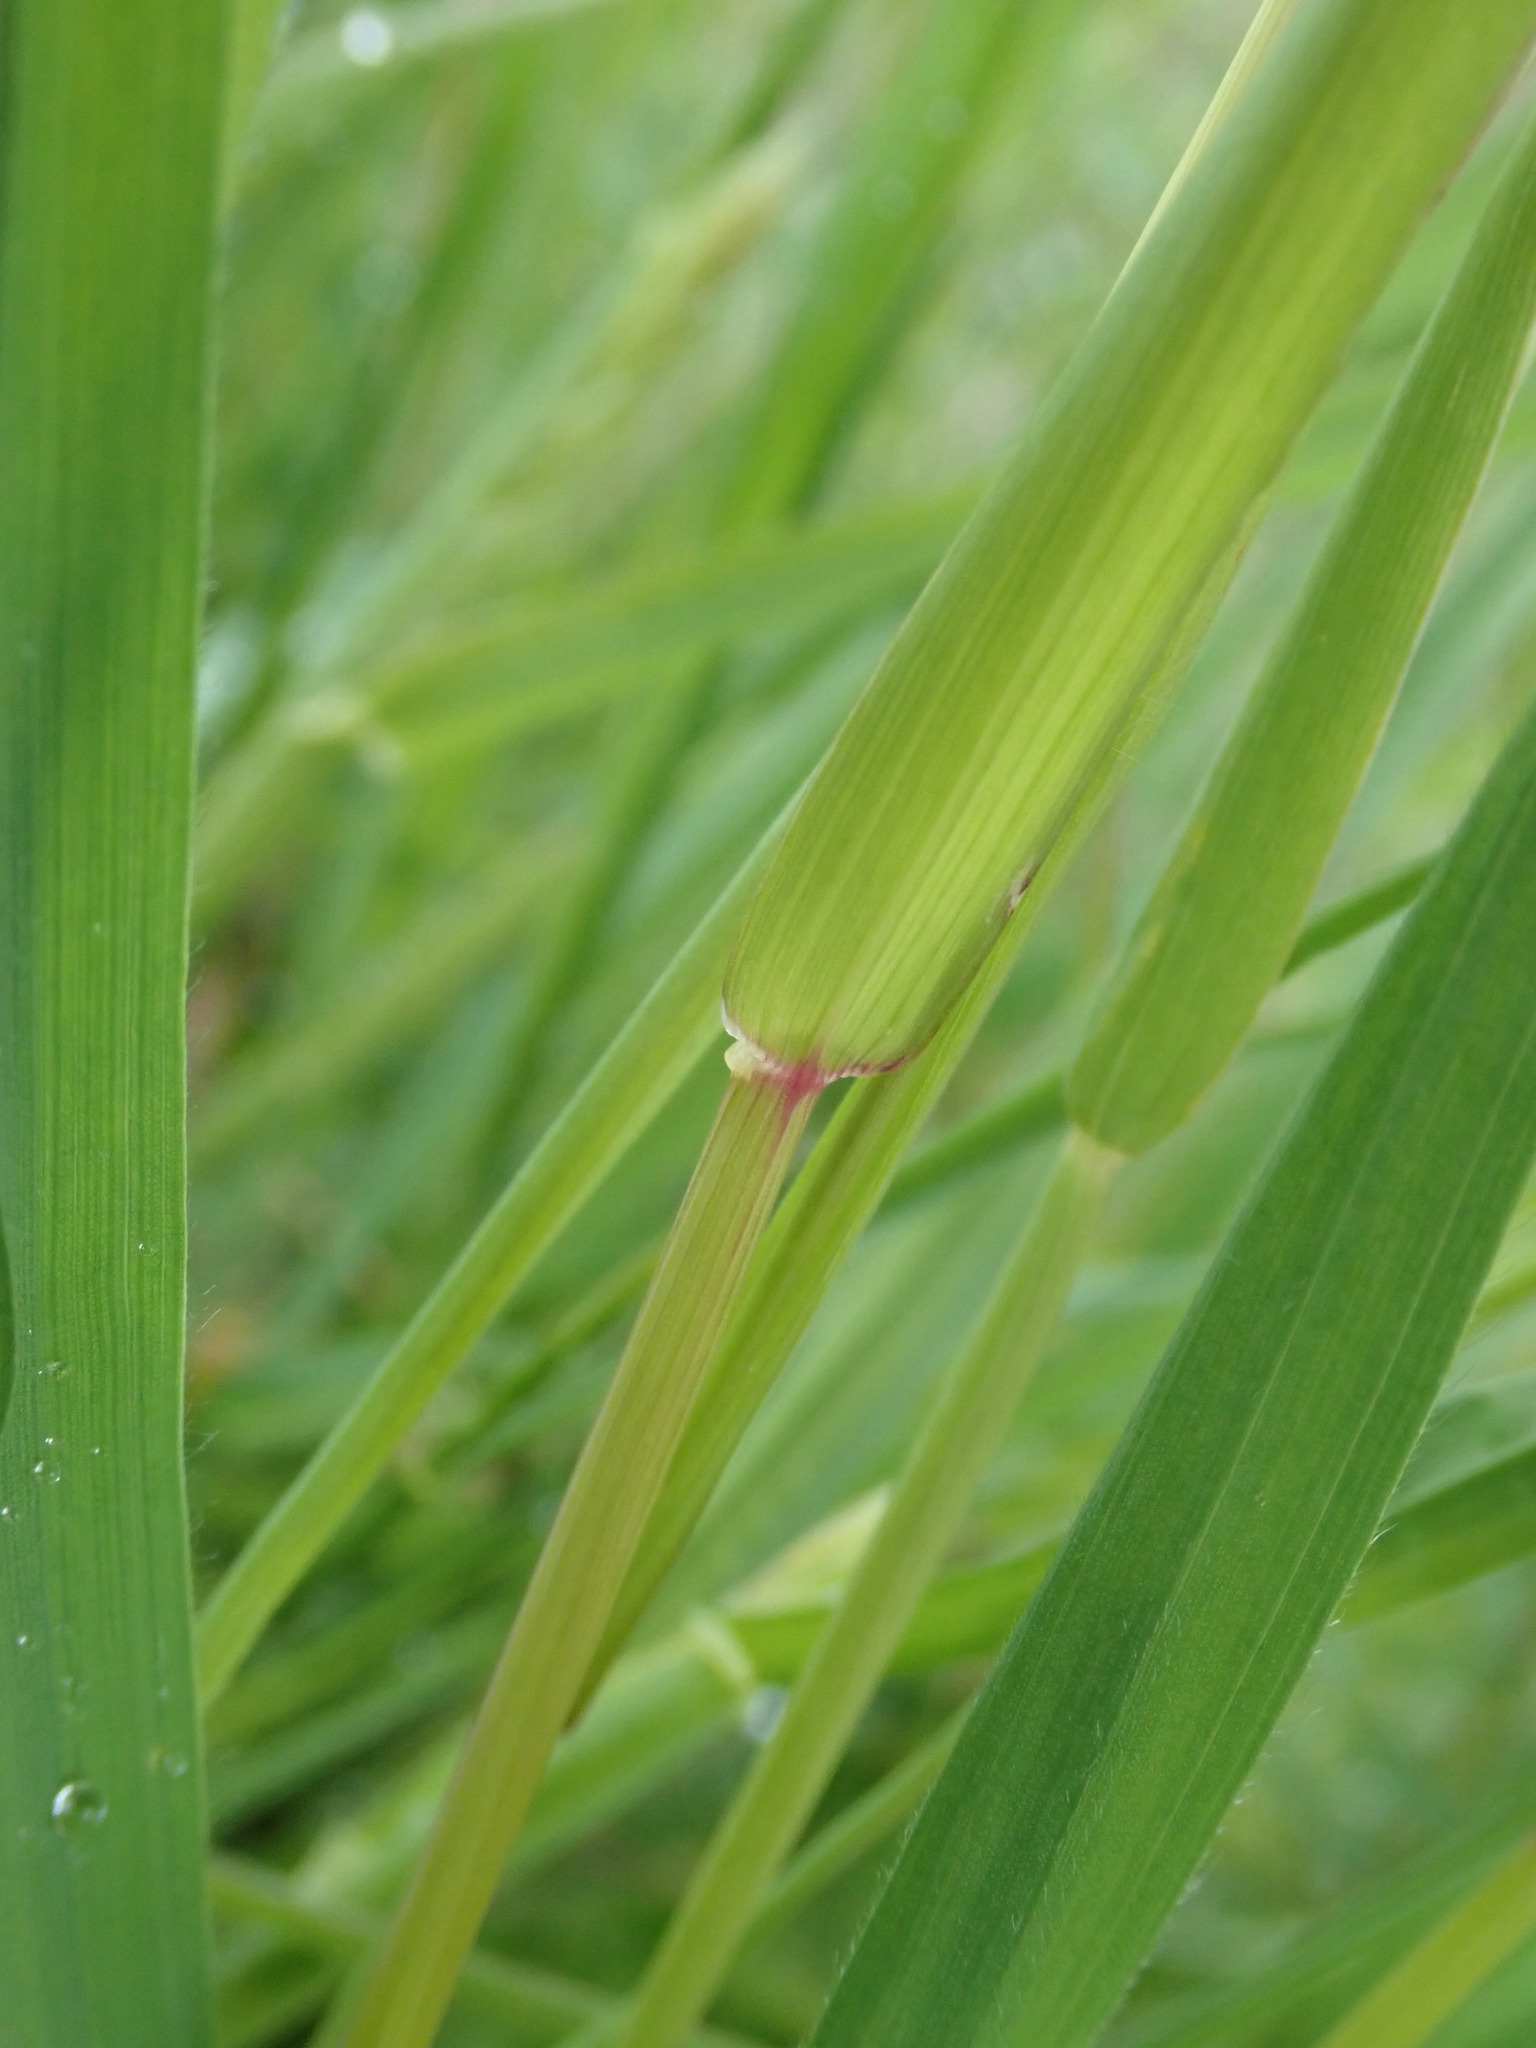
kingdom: Plantae
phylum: Tracheophyta
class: Liliopsida
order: Poales
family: Poaceae
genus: Alopecurus
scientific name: Alopecurus myosuroides
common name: Black-grass
